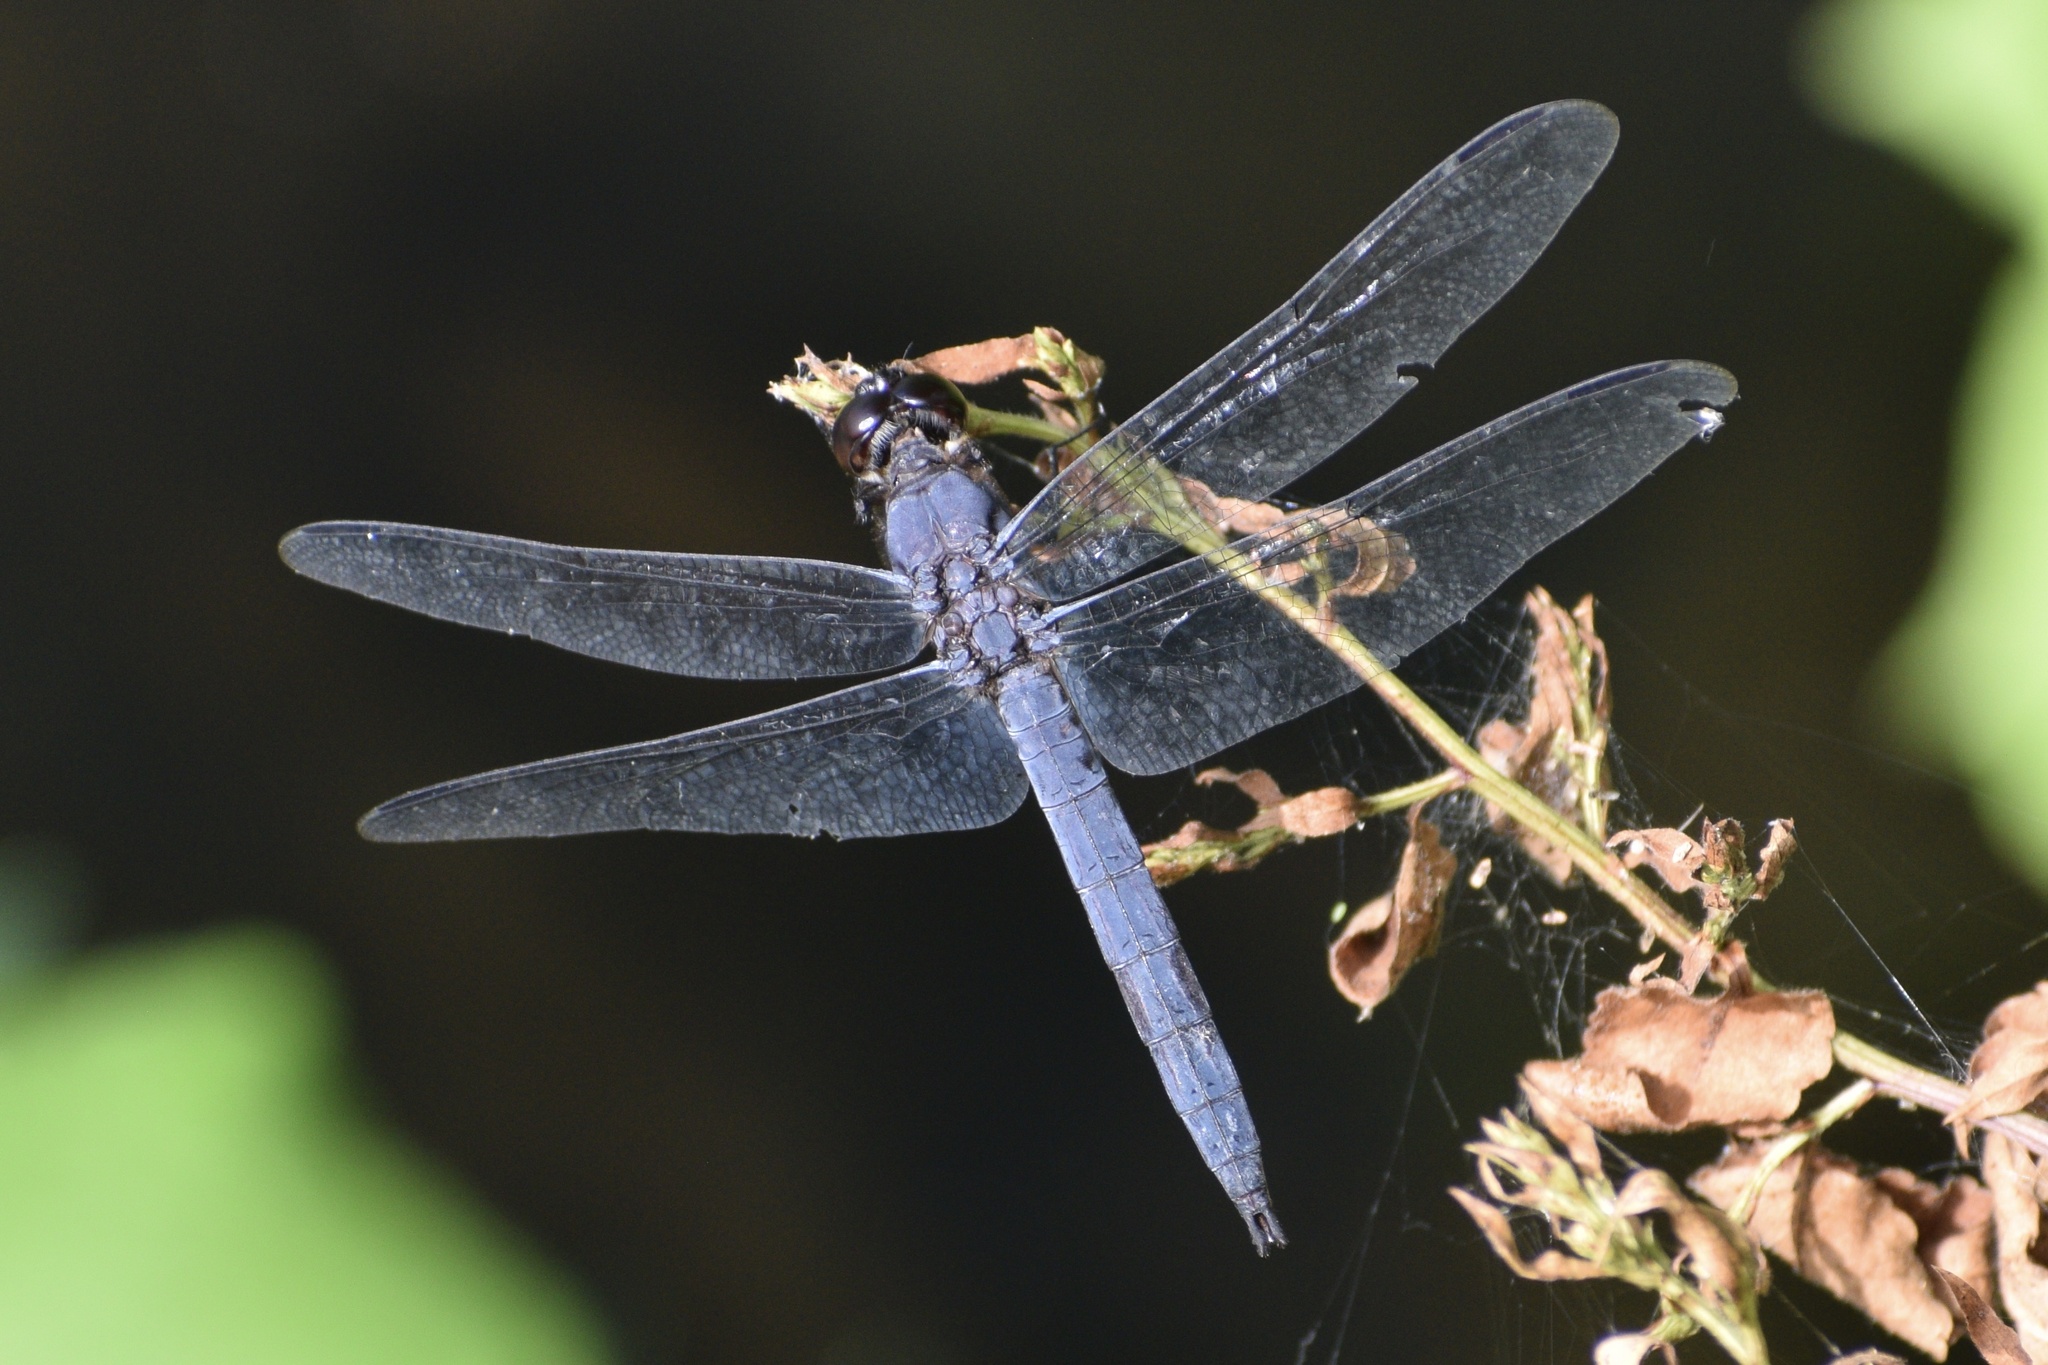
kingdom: Animalia
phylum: Arthropoda
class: Insecta
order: Odonata
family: Libellulidae
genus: Libellula
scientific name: Libellula incesta
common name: Slaty skimmer
